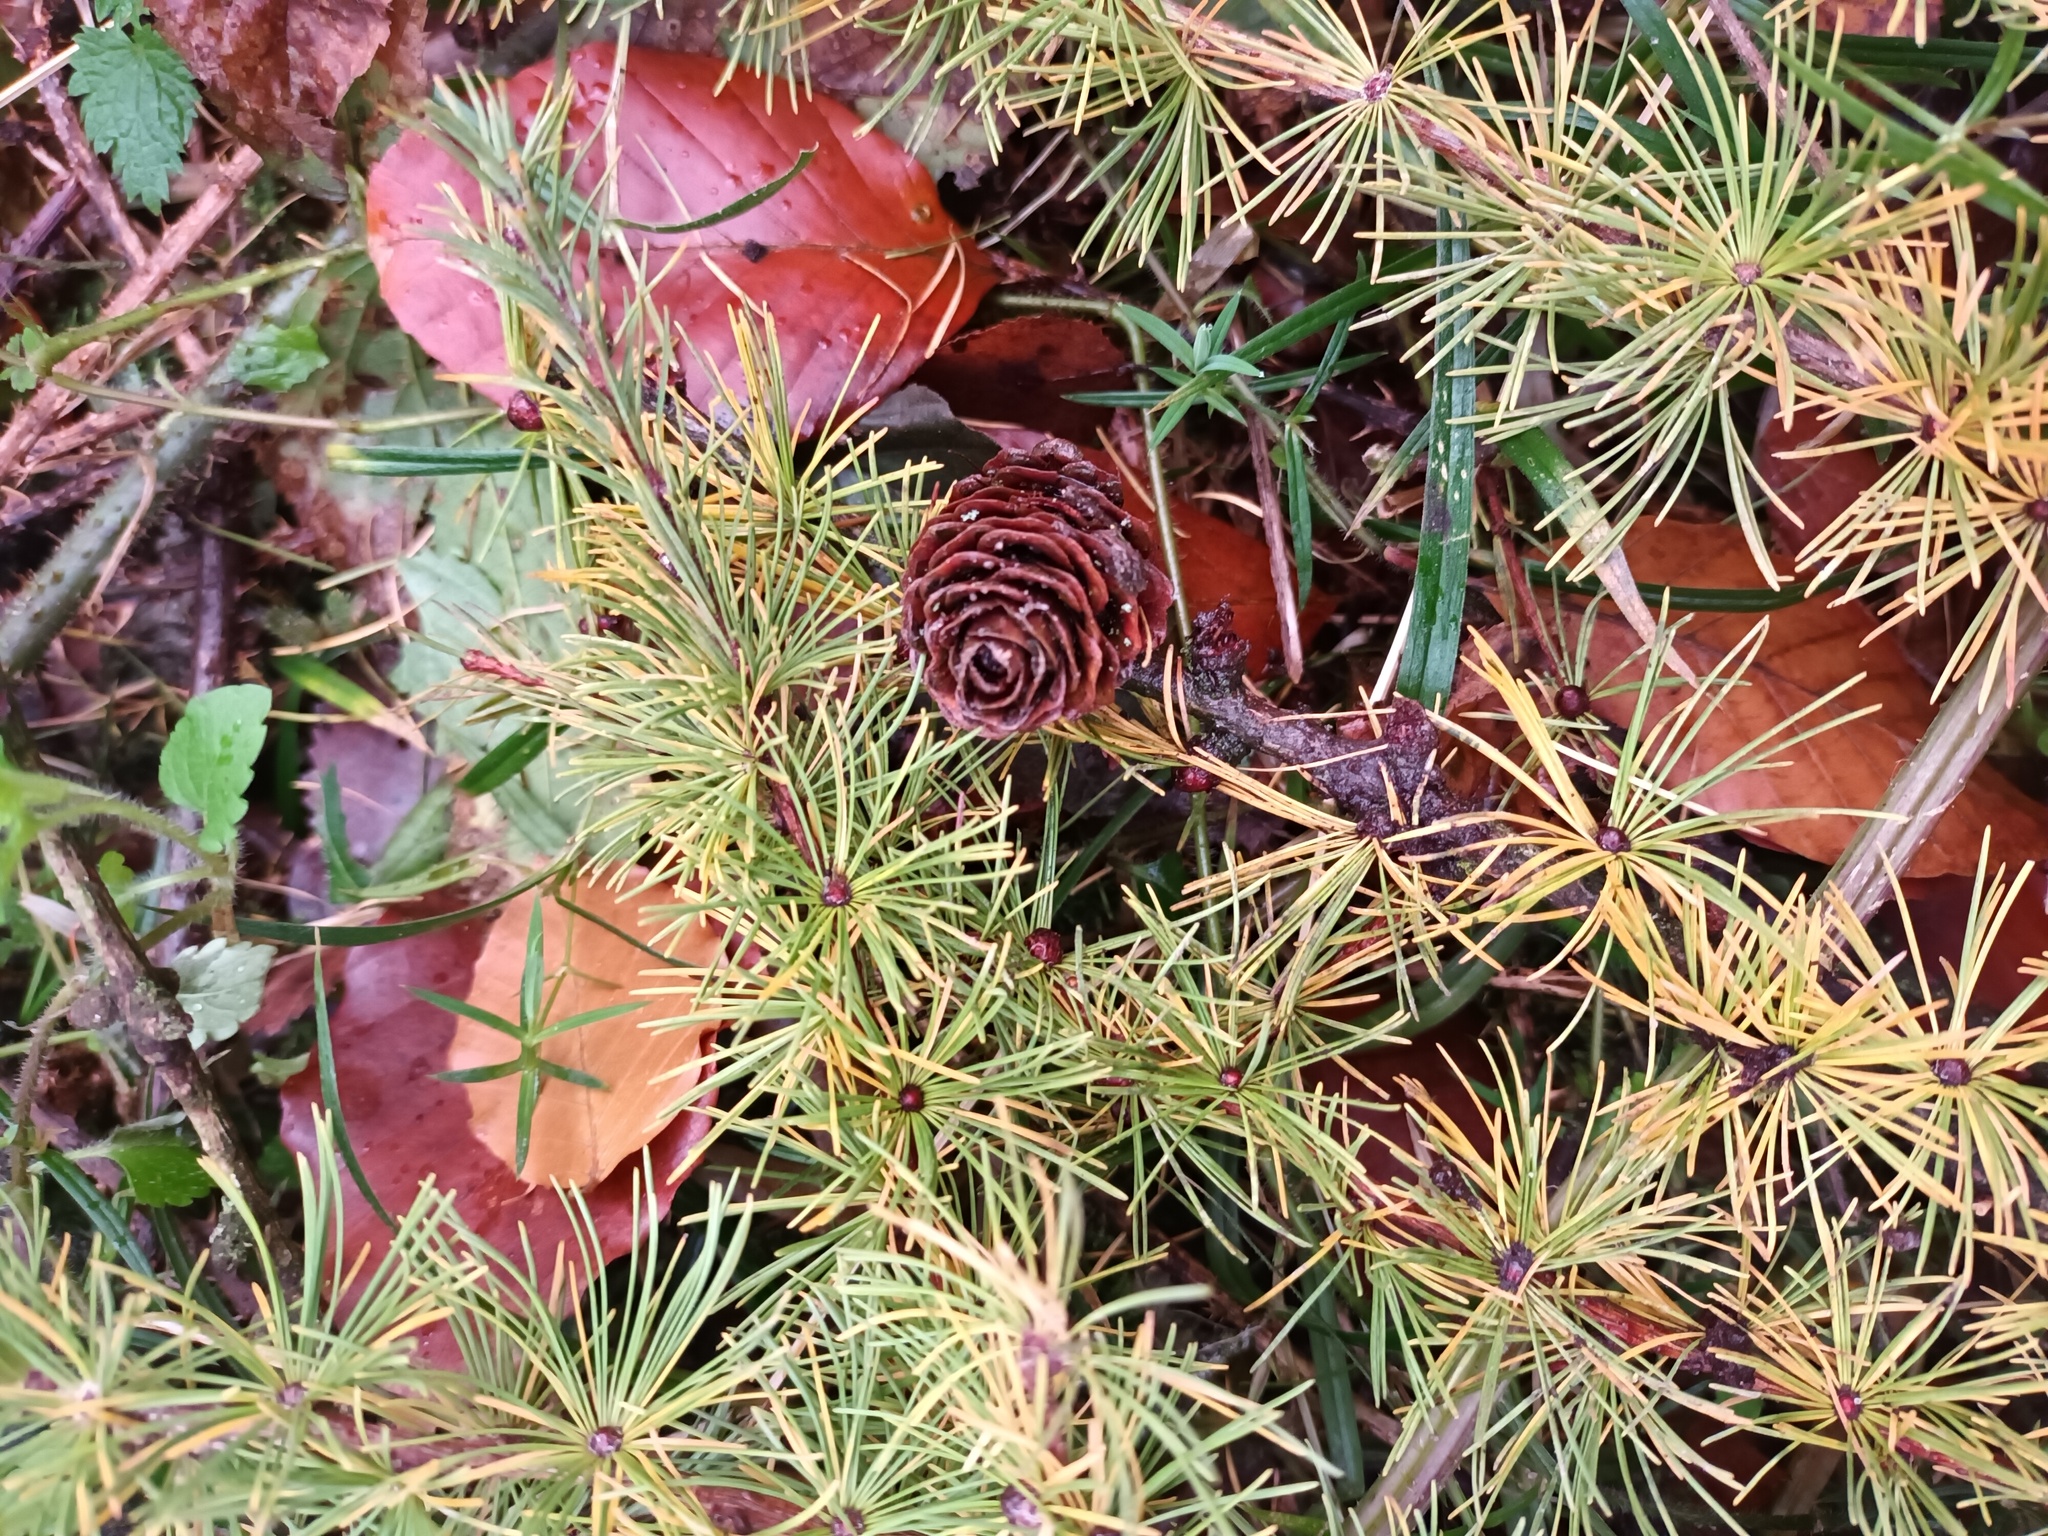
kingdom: Plantae
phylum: Tracheophyta
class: Pinopsida
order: Pinales
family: Pinaceae
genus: Larix
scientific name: Larix decidua
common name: European larch
